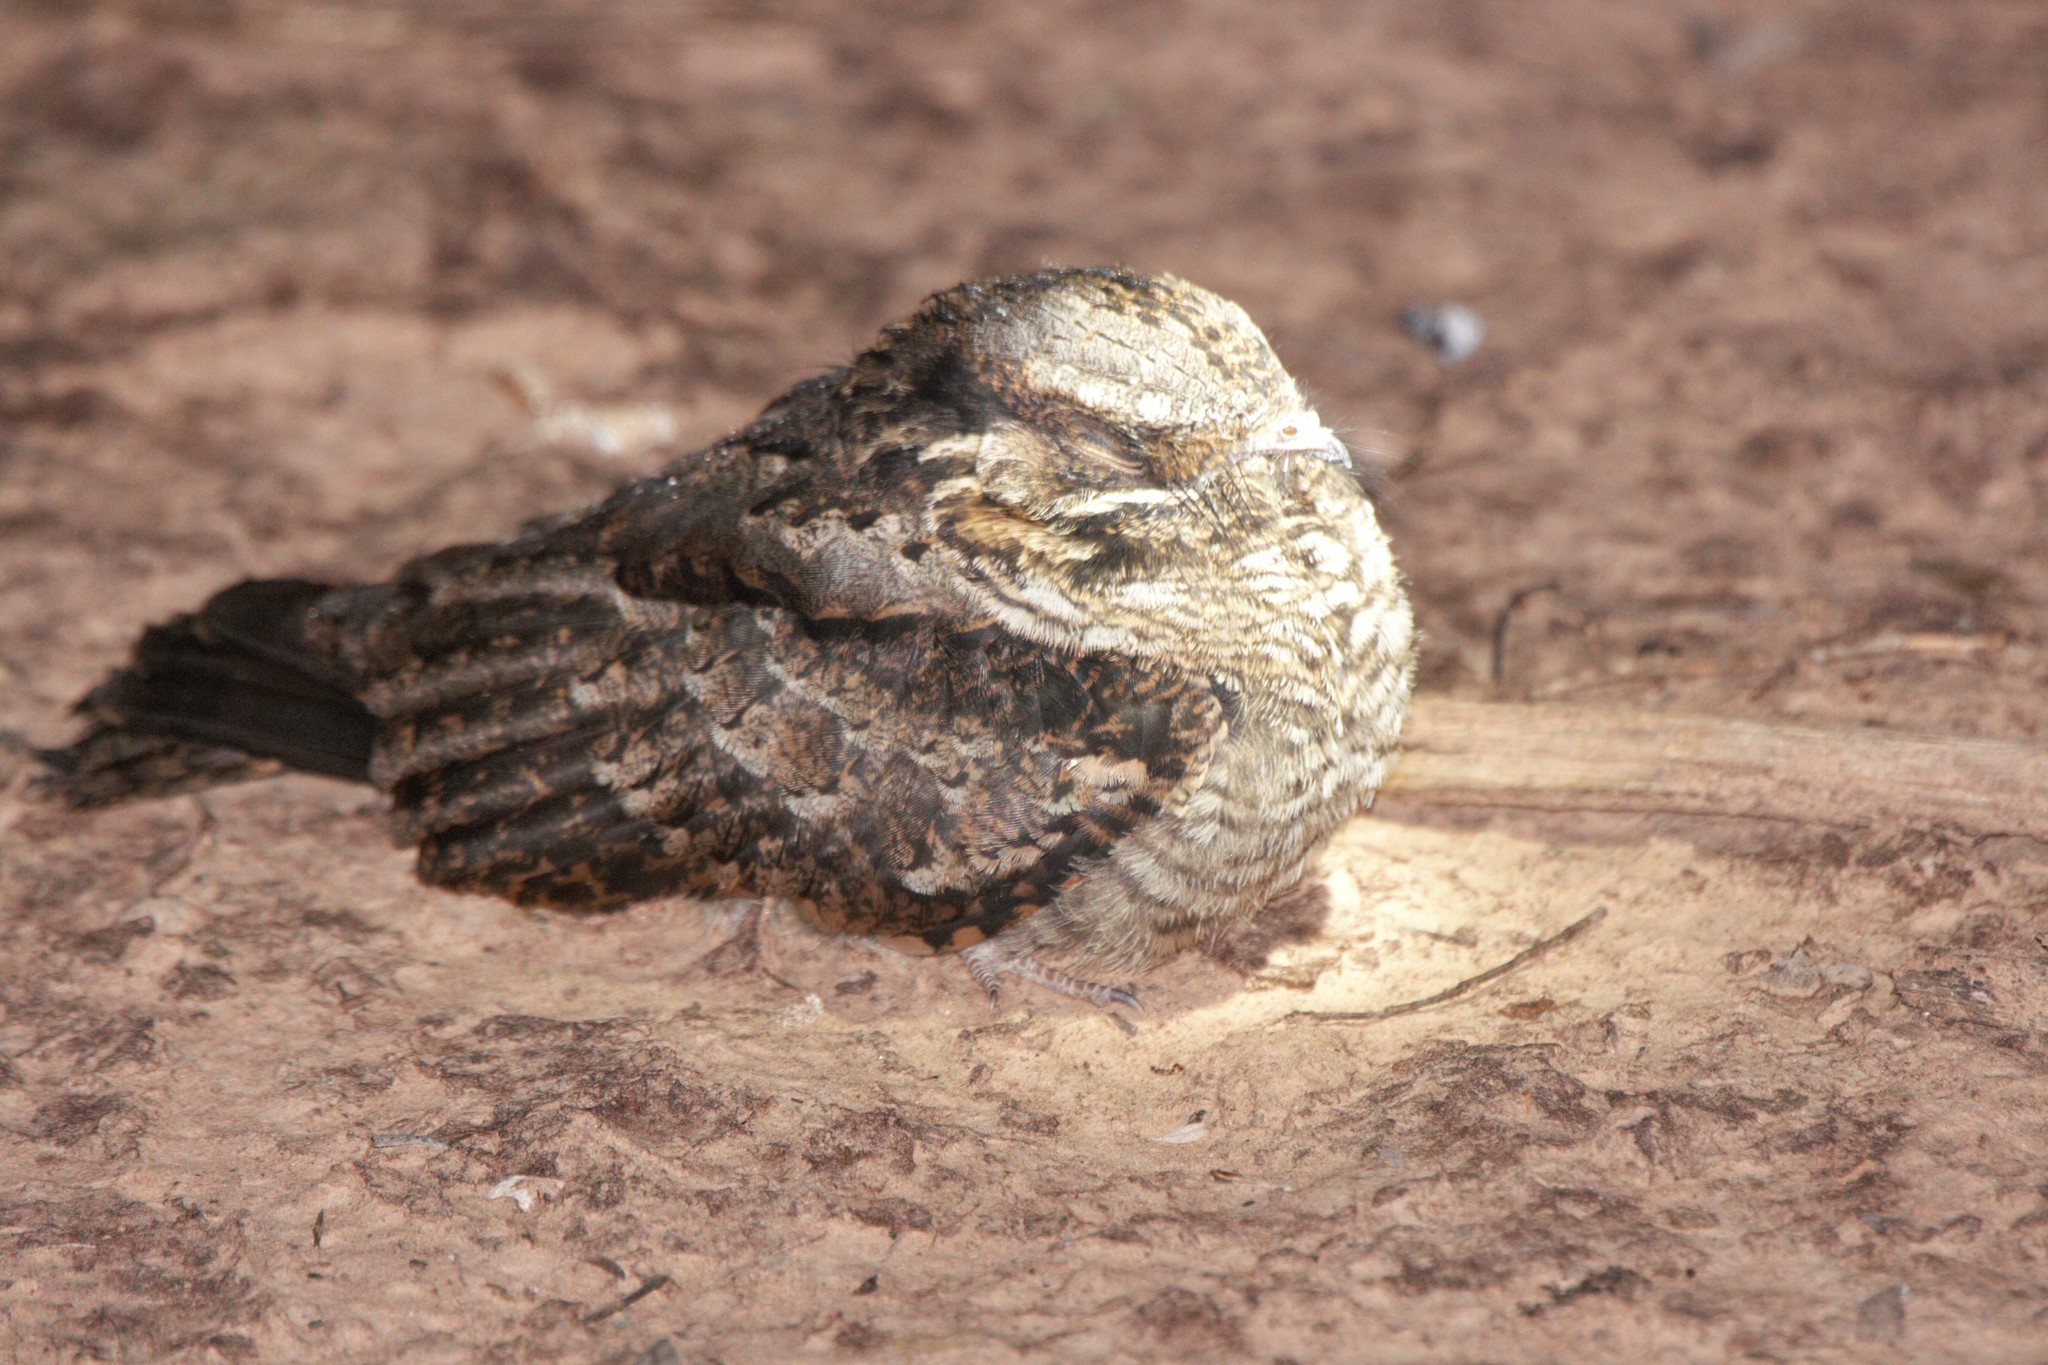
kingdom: Animalia
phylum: Chordata
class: Aves
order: Caprimulgiformes
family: Caprimulgidae
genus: Antrostomus
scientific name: Antrostomus rufus
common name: Rufous nightjar
